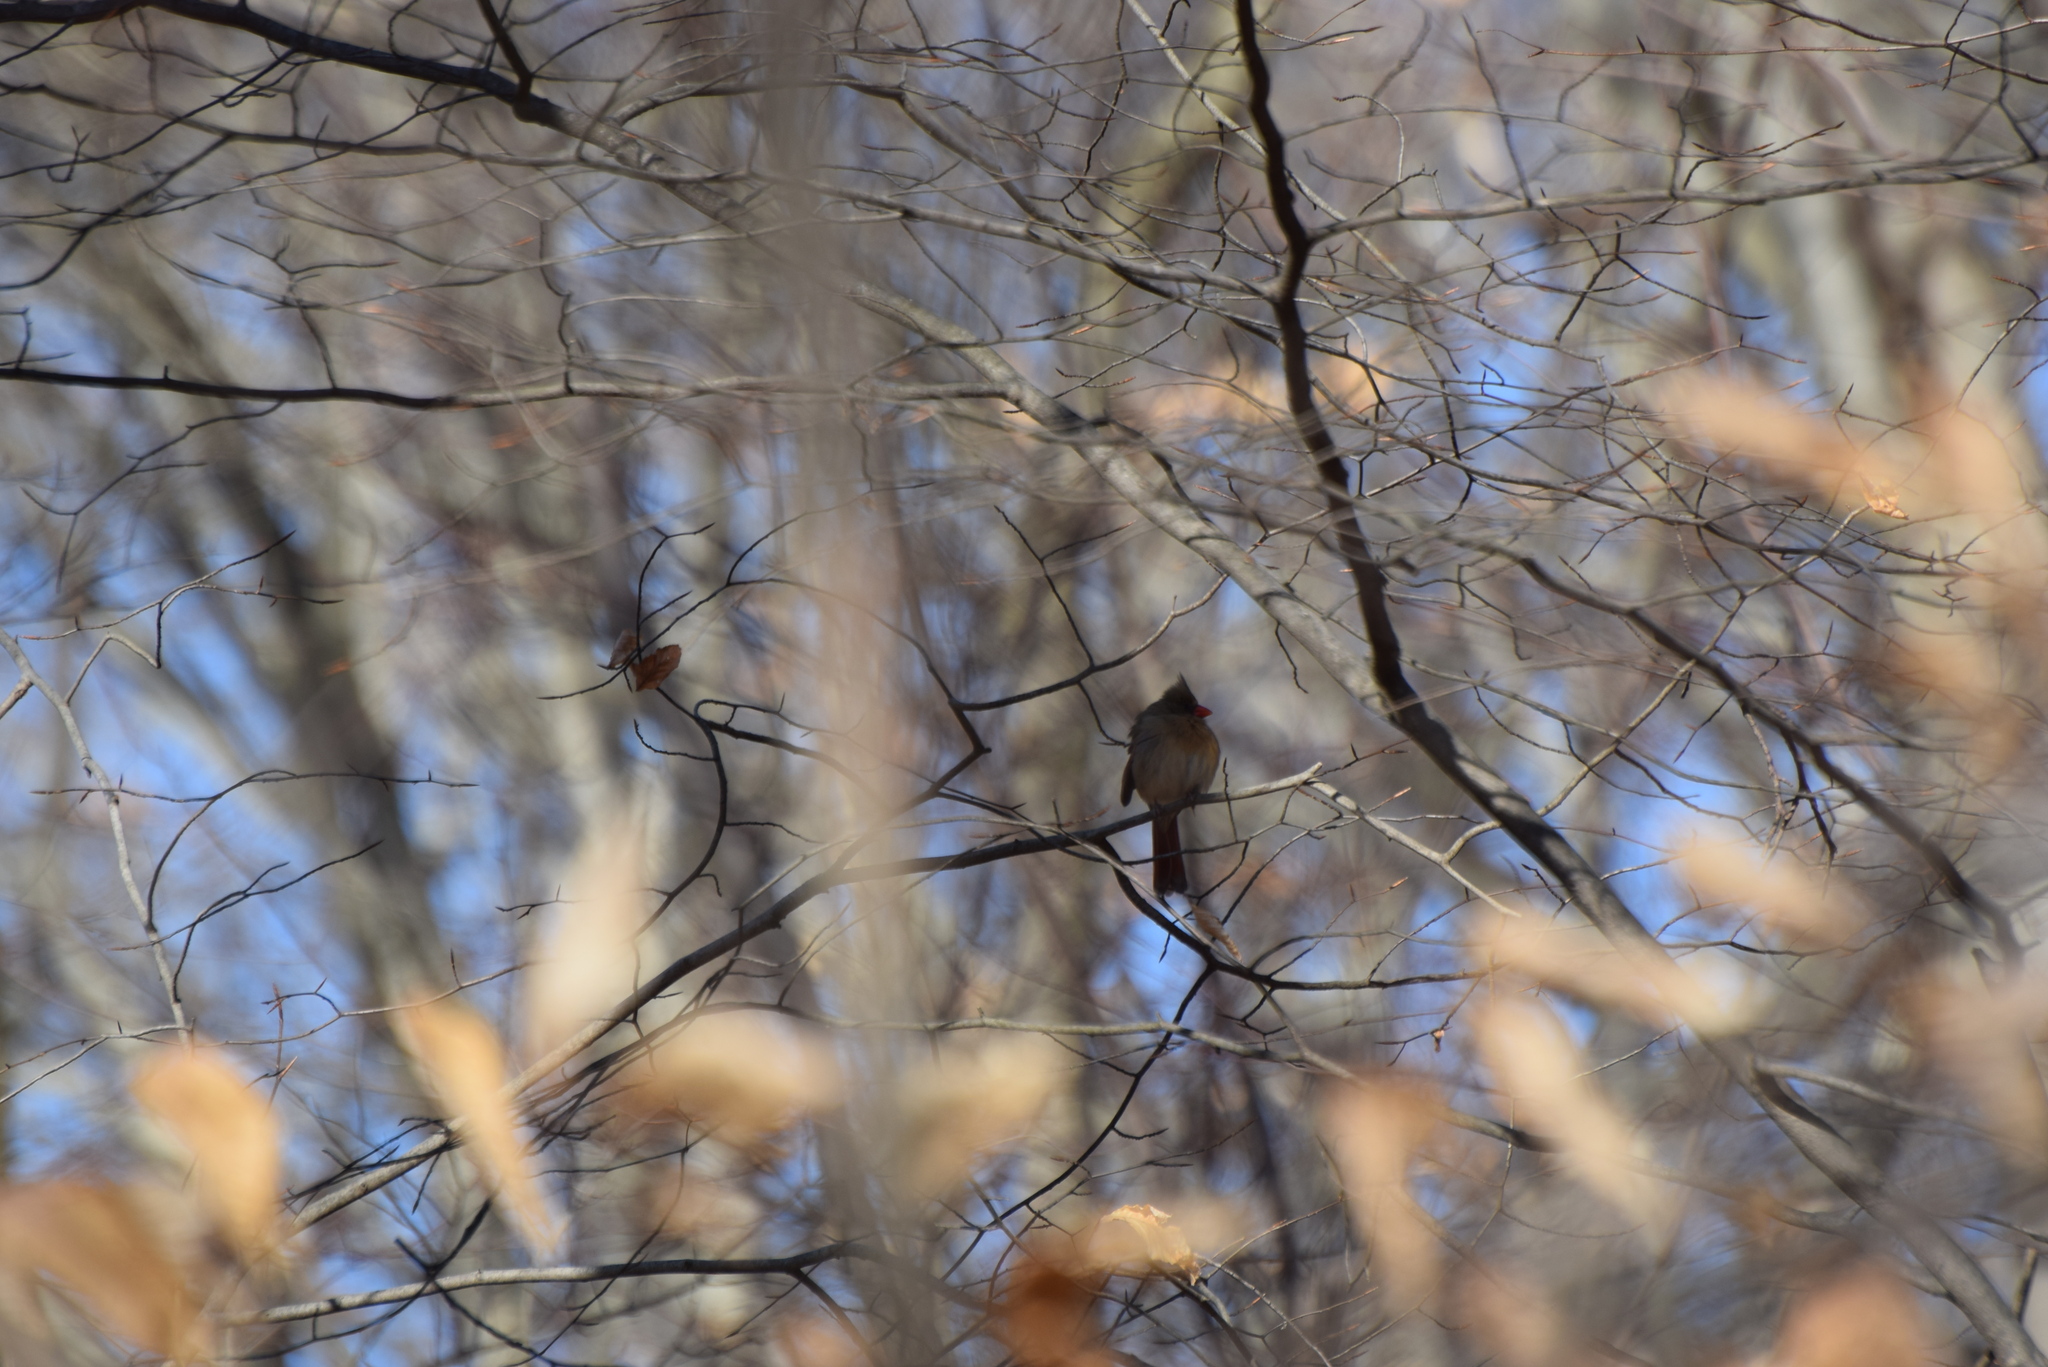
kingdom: Animalia
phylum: Chordata
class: Aves
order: Passeriformes
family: Cardinalidae
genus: Cardinalis
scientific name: Cardinalis cardinalis
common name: Northern cardinal
